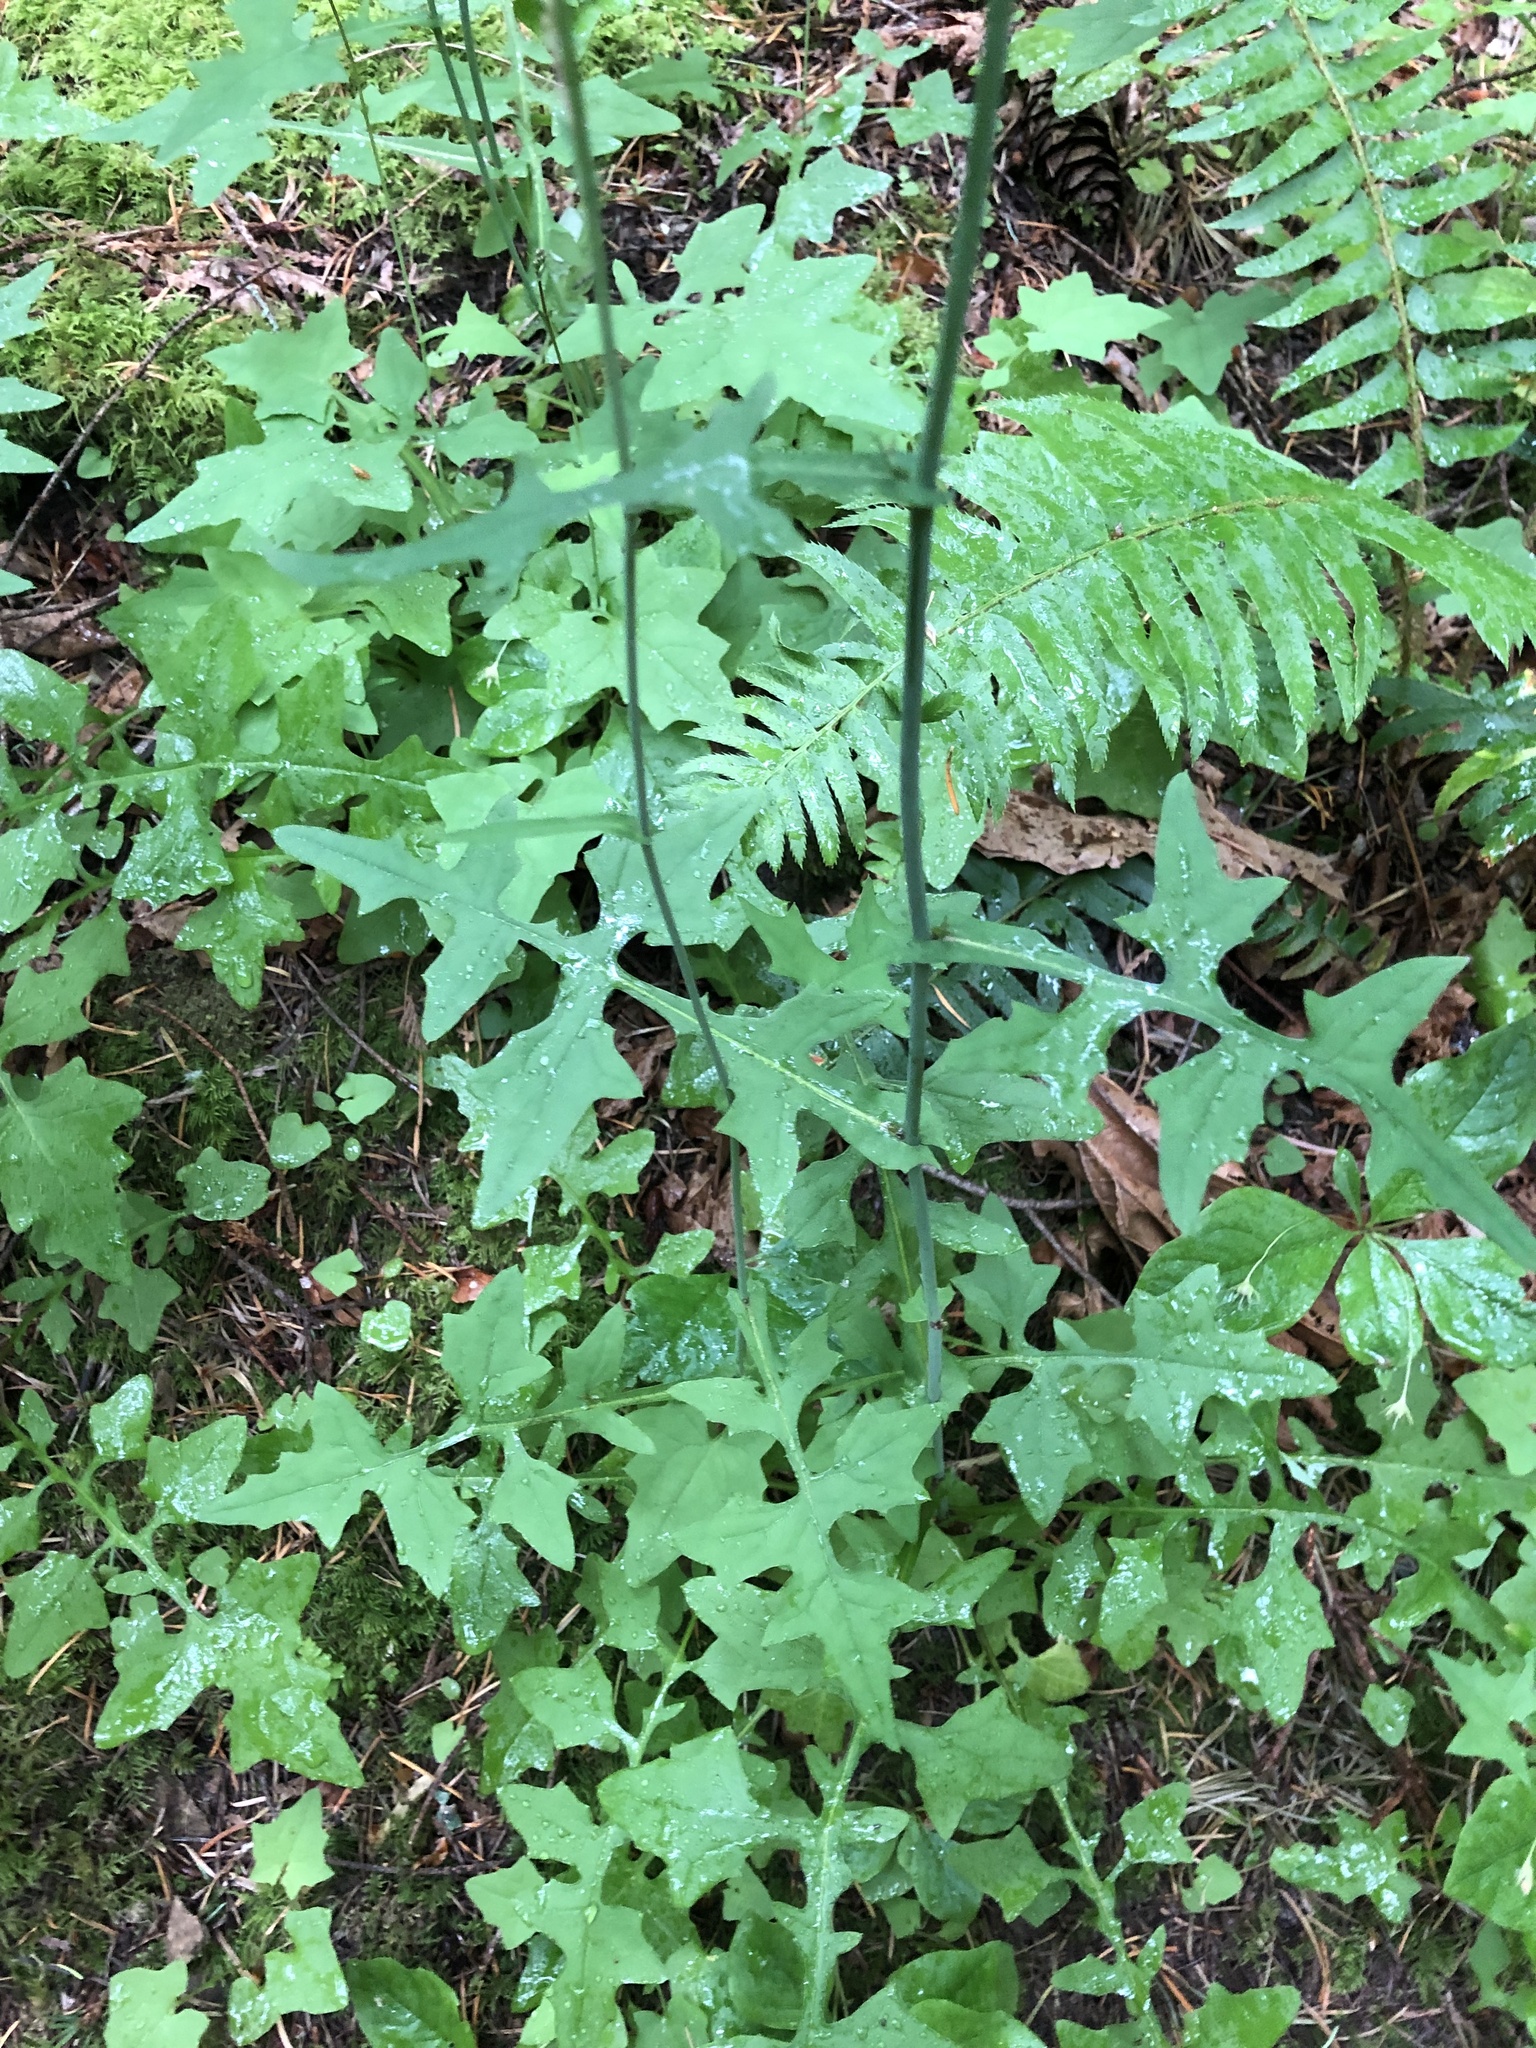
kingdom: Plantae
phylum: Tracheophyta
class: Magnoliopsida
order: Asterales
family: Asteraceae
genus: Mycelis
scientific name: Mycelis muralis
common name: Wall lettuce
